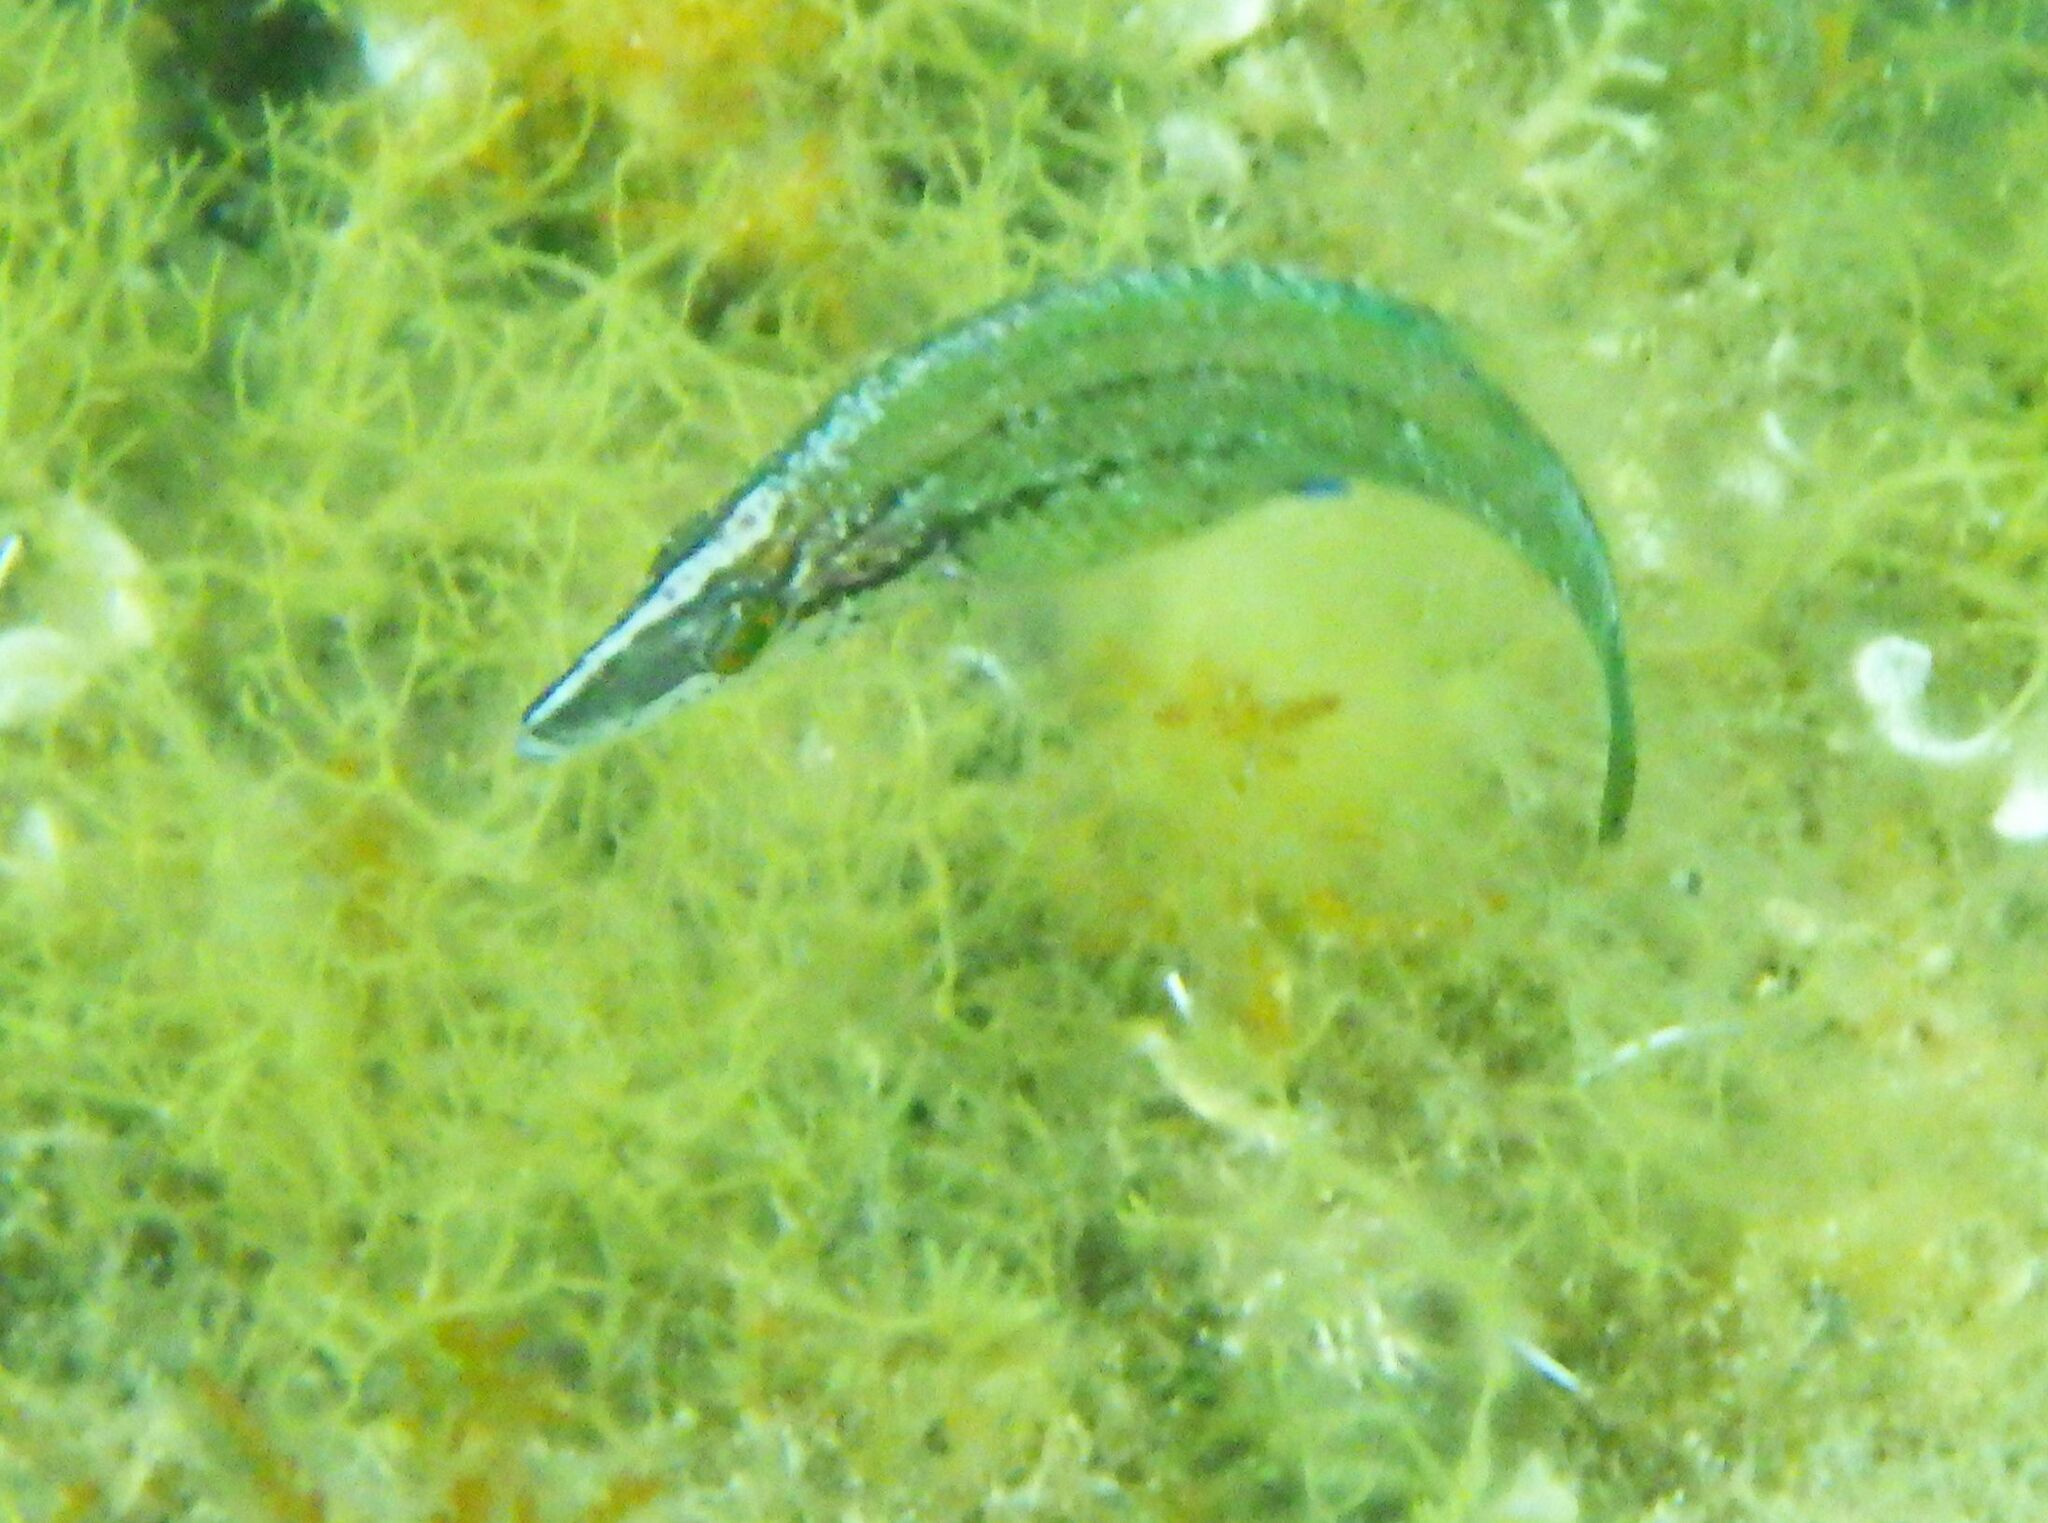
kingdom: Animalia
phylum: Chordata
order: Perciformes
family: Labridae
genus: Symphodus
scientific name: Symphodus rostratus
